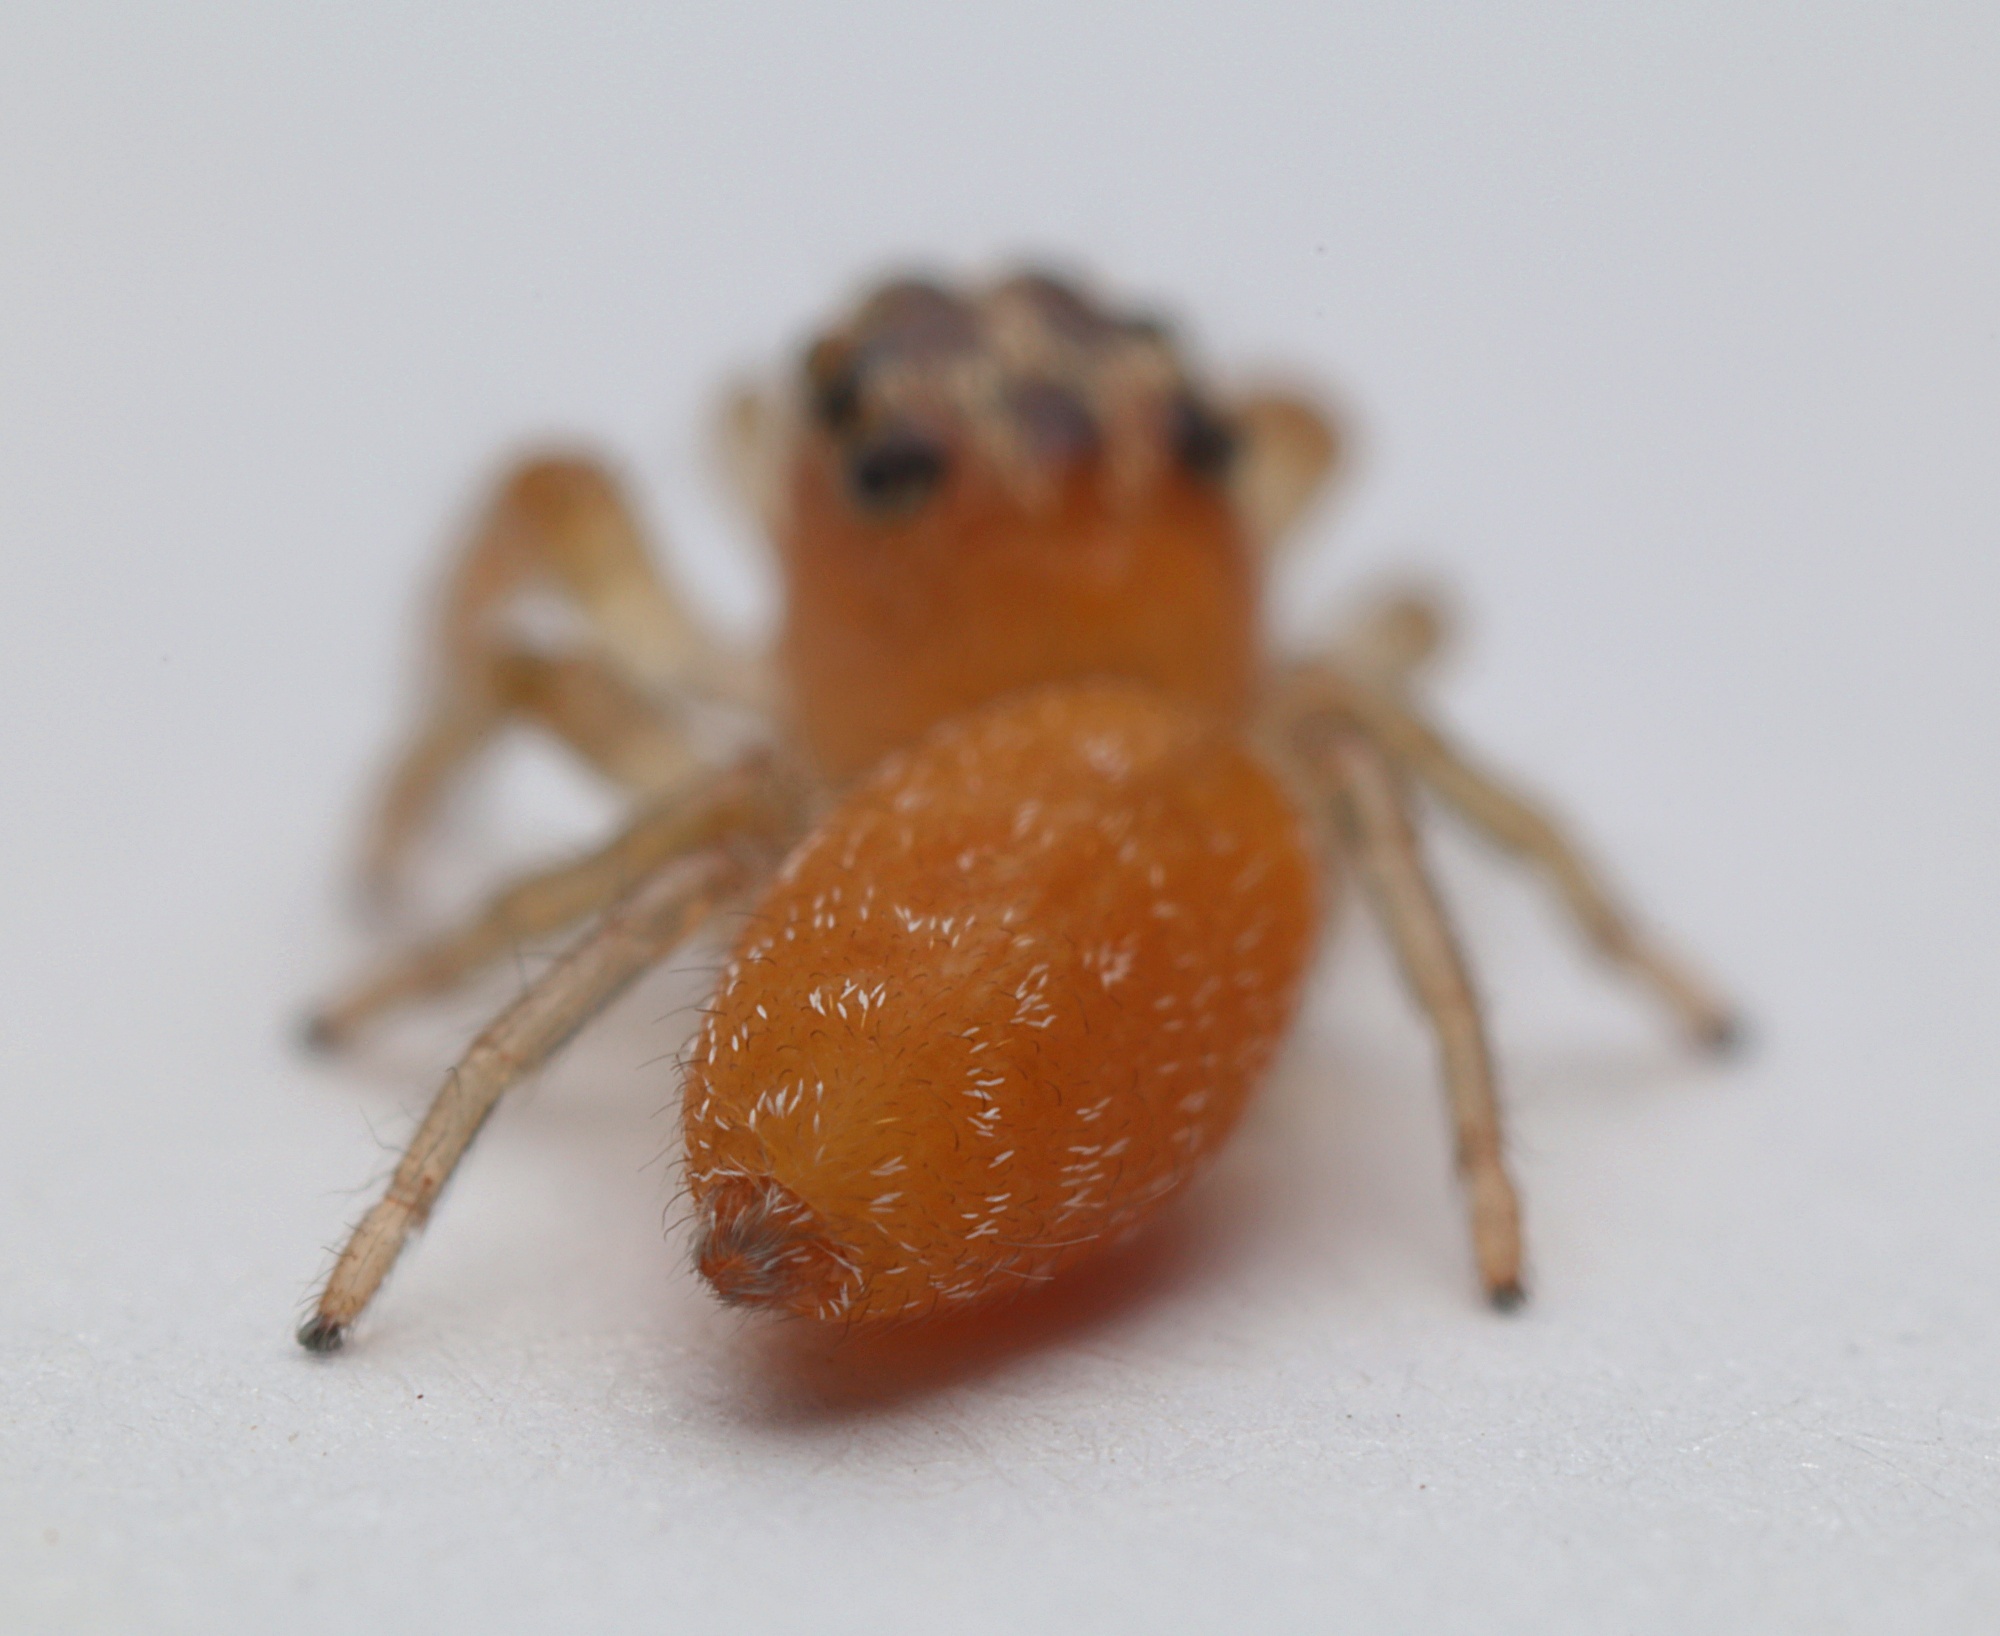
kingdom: Animalia
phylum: Arthropoda
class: Arachnida
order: Araneae
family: Salticidae
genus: Opisthoncus
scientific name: Opisthoncus polyphemus
